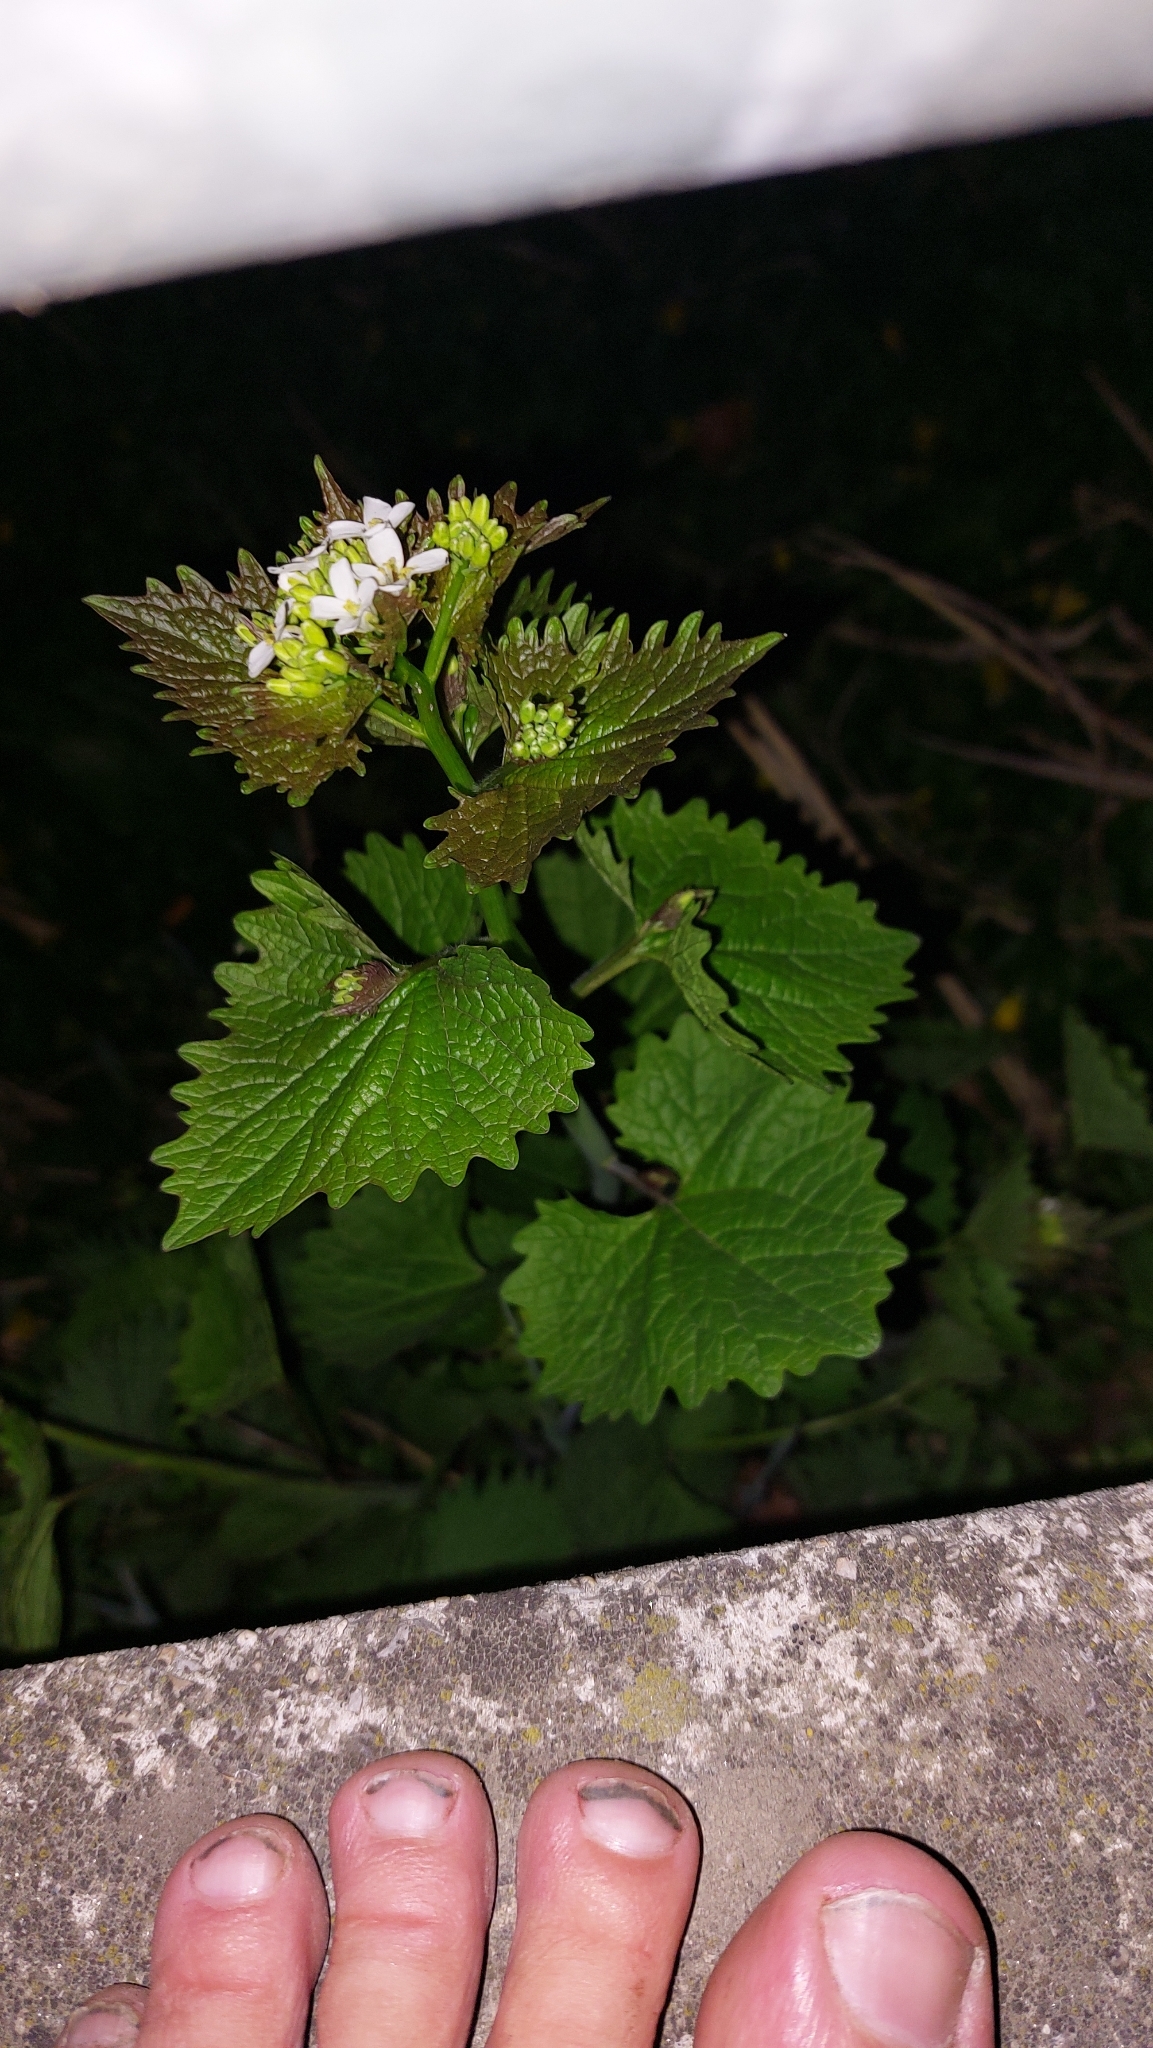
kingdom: Plantae
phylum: Tracheophyta
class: Magnoliopsida
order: Brassicales
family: Brassicaceae
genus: Alliaria
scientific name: Alliaria petiolata
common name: Garlic mustard
